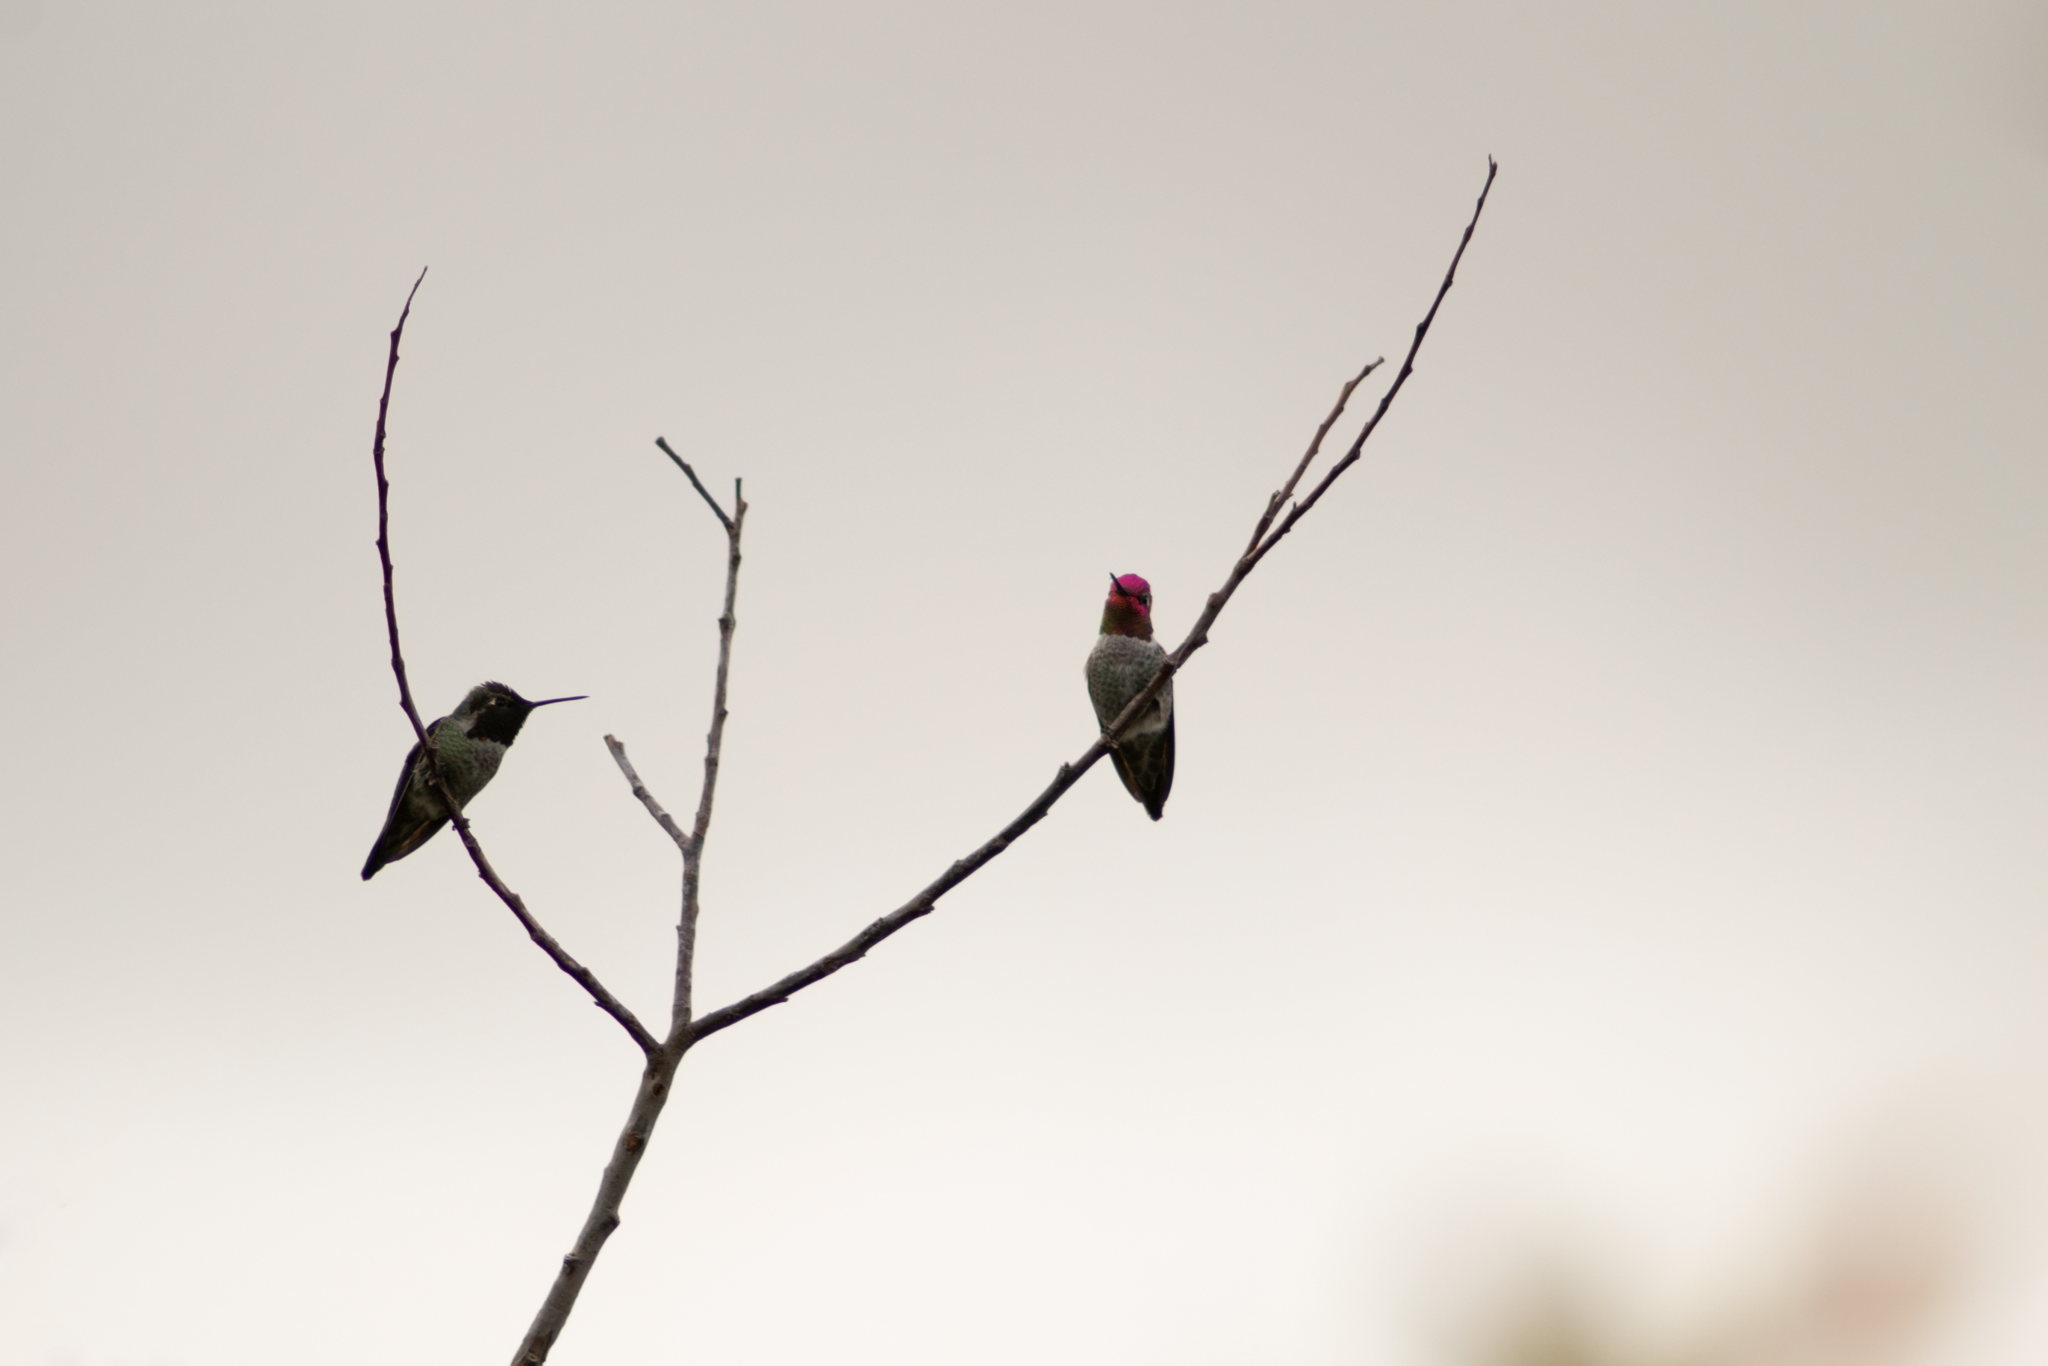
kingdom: Animalia
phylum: Chordata
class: Aves
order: Apodiformes
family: Trochilidae
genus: Calypte
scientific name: Calypte anna
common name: Anna's hummingbird
